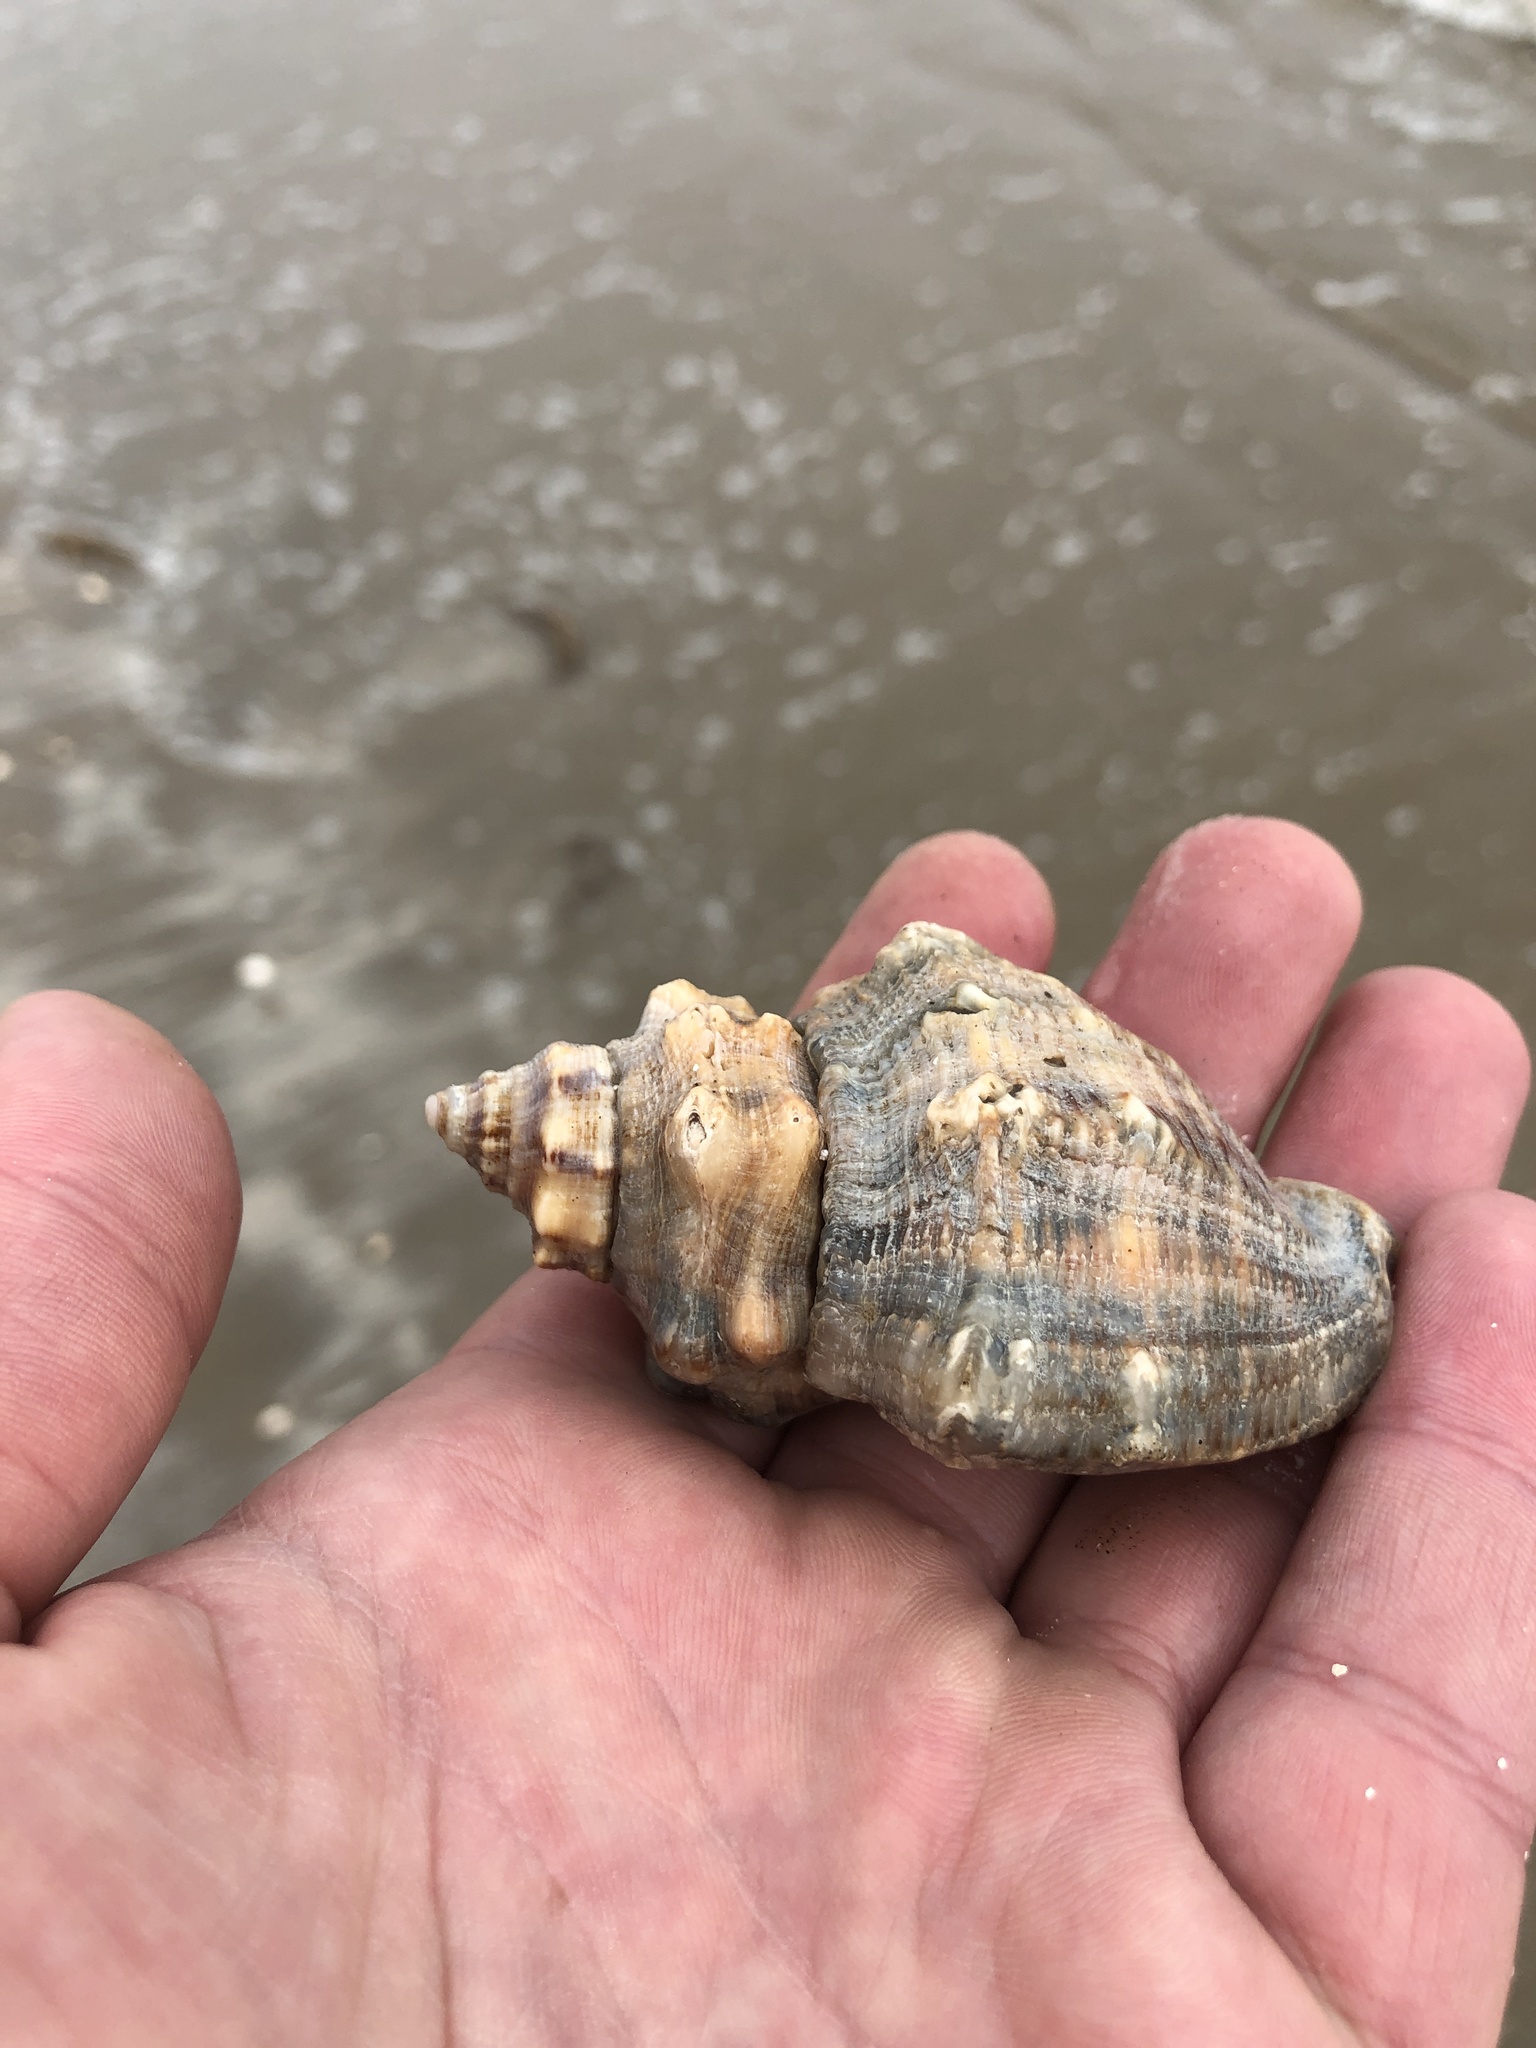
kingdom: Animalia
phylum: Mollusca
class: Gastropoda
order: Neogastropoda
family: Muricidae
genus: Stramonita
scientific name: Stramonita canaliculata
